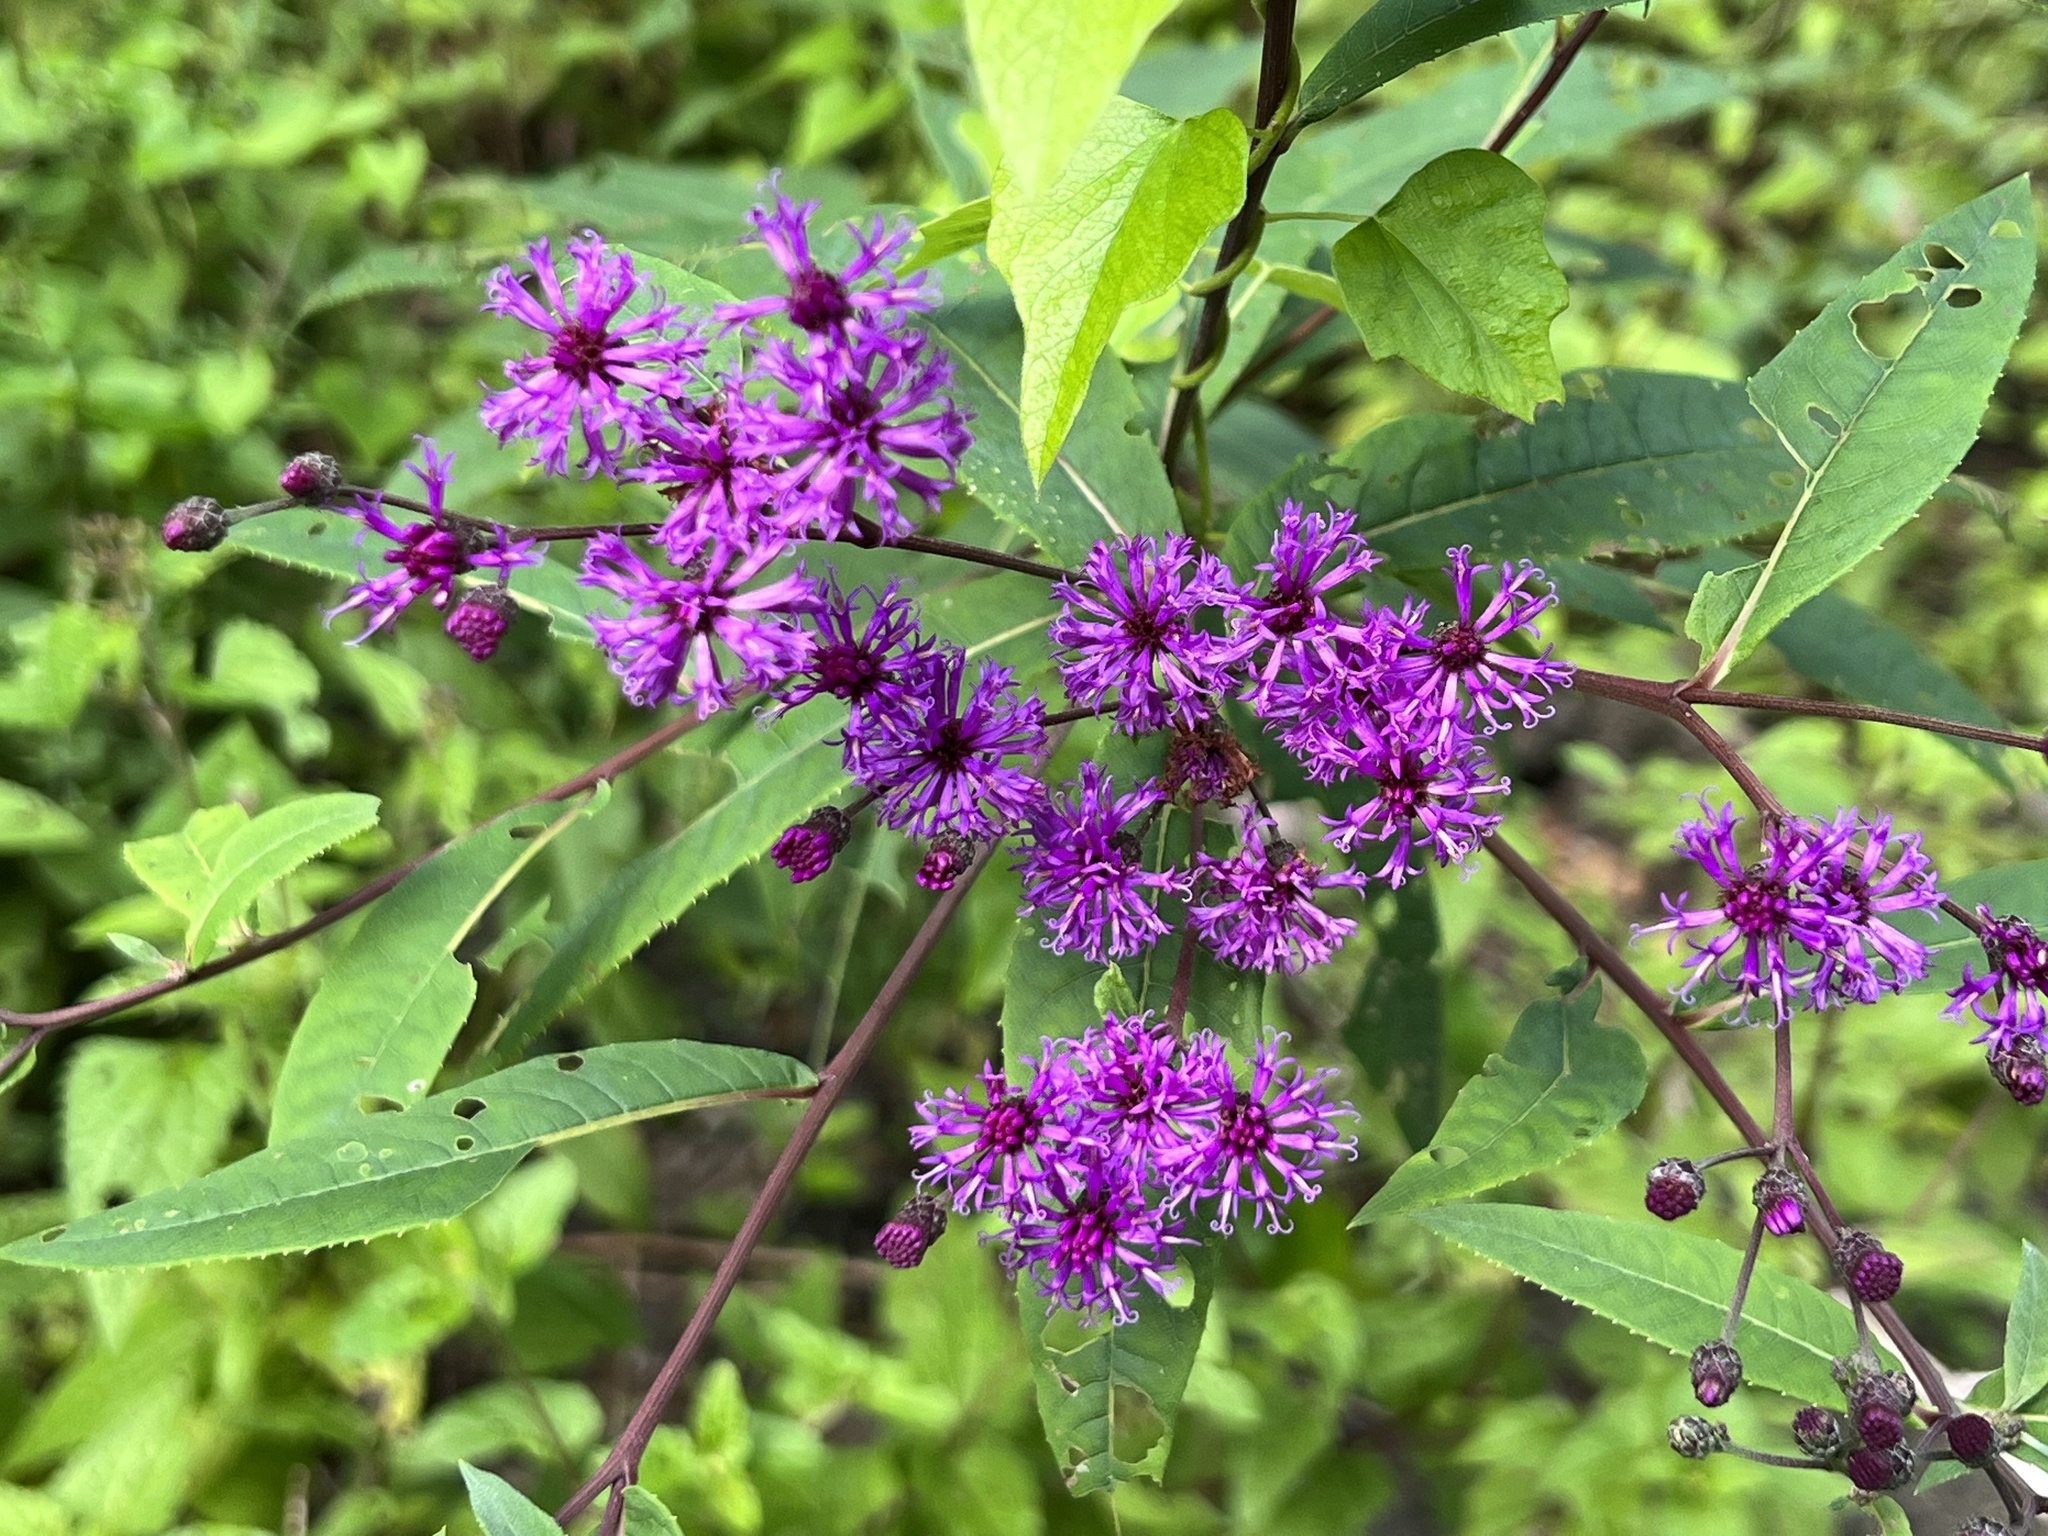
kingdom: Plantae
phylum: Tracheophyta
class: Magnoliopsida
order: Asterales
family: Asteraceae
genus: Vernonia
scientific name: Vernonia gigantea
